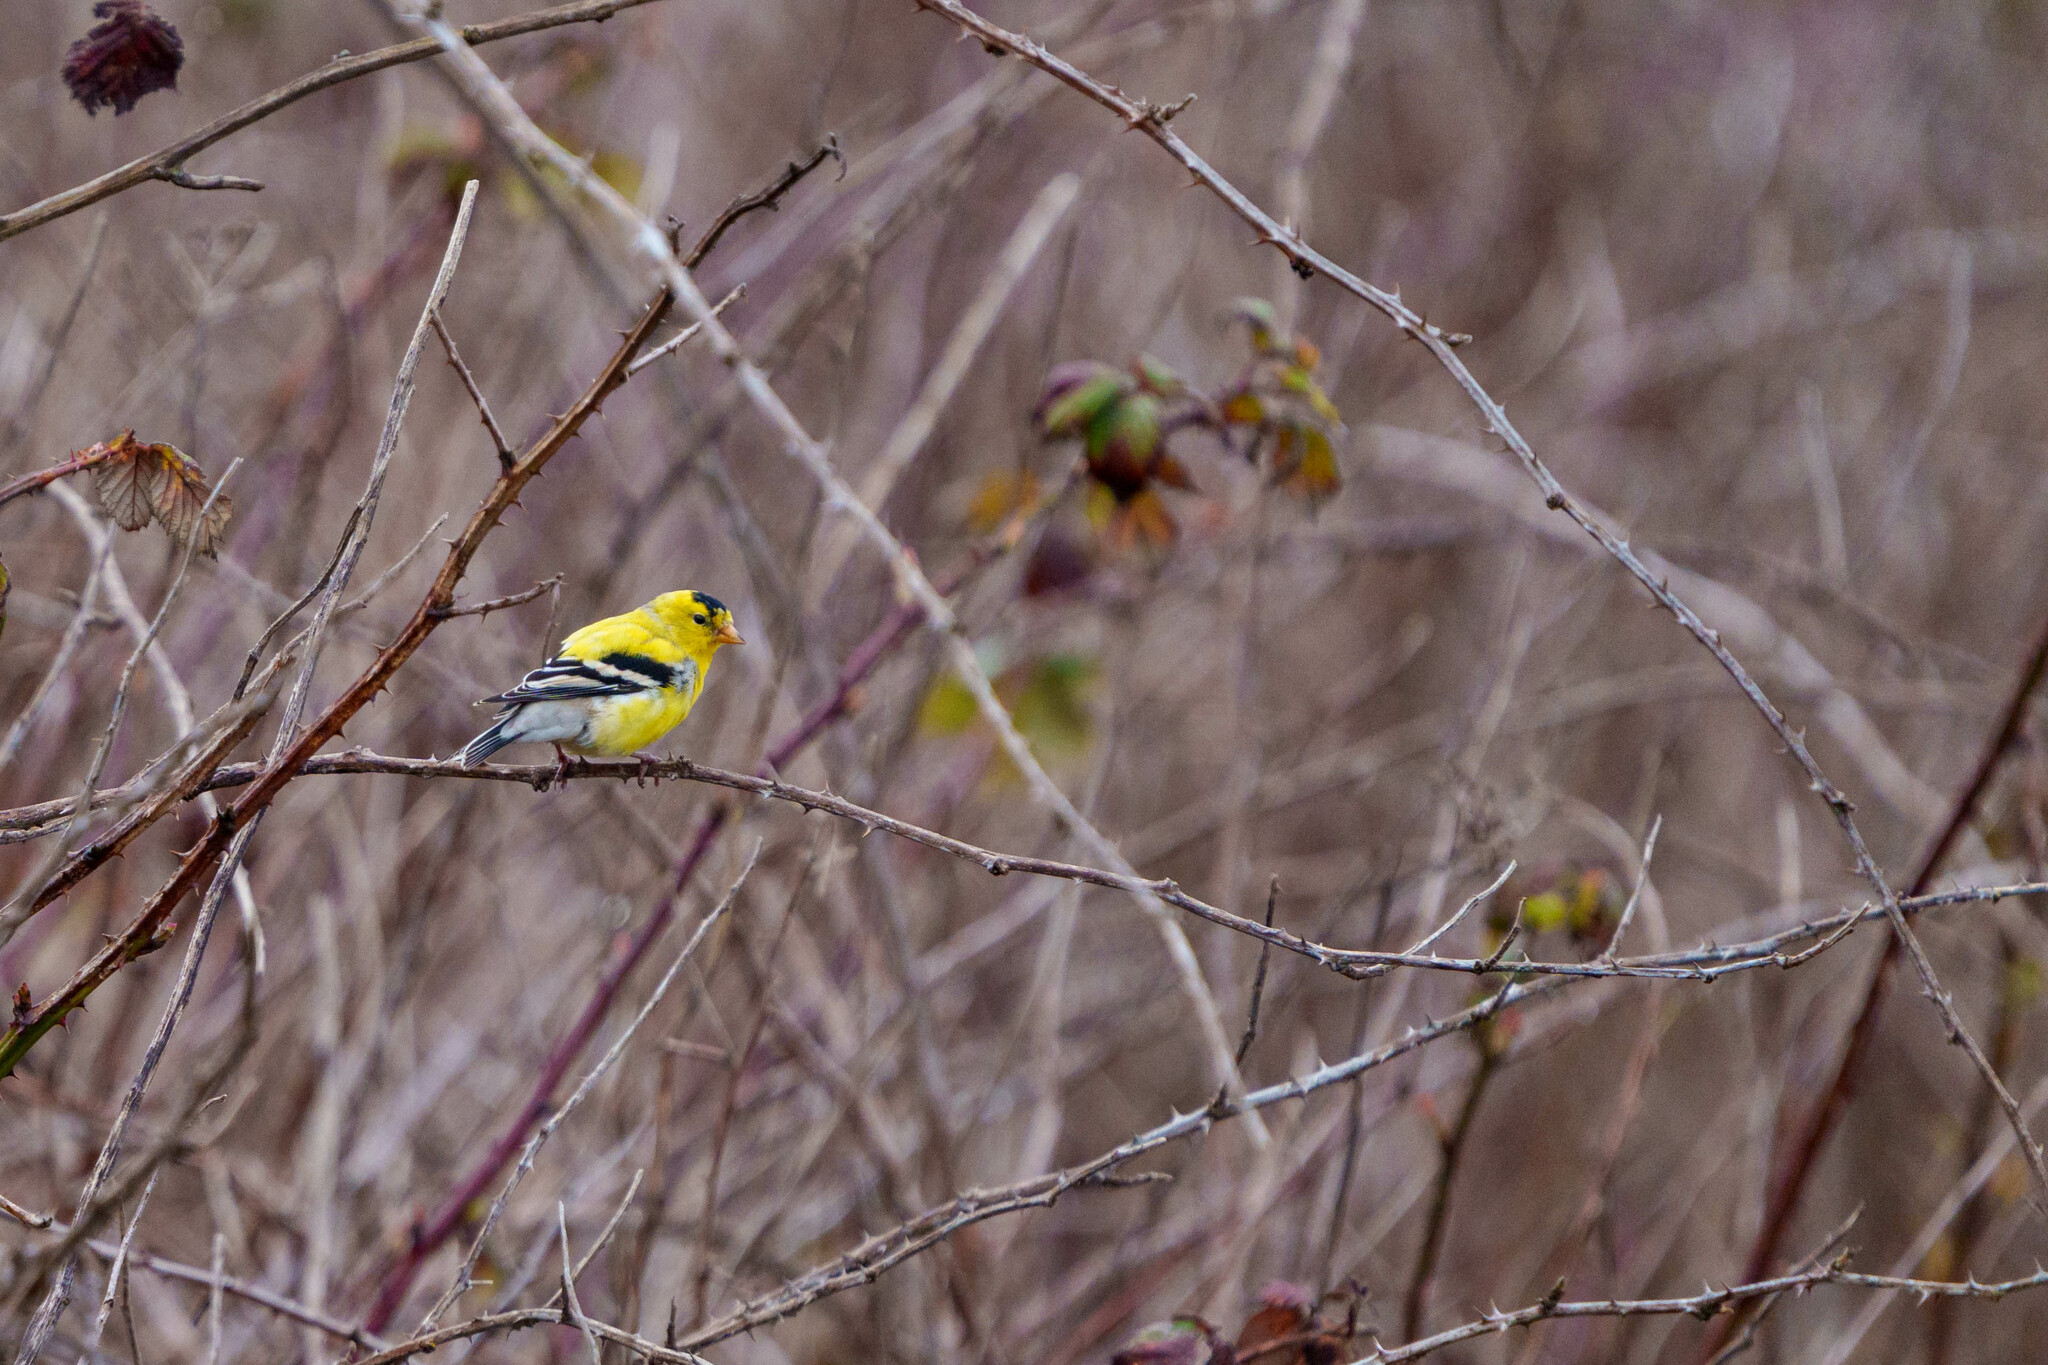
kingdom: Animalia
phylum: Chordata
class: Aves
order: Passeriformes
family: Fringillidae
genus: Spinus
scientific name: Spinus tristis
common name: American goldfinch
